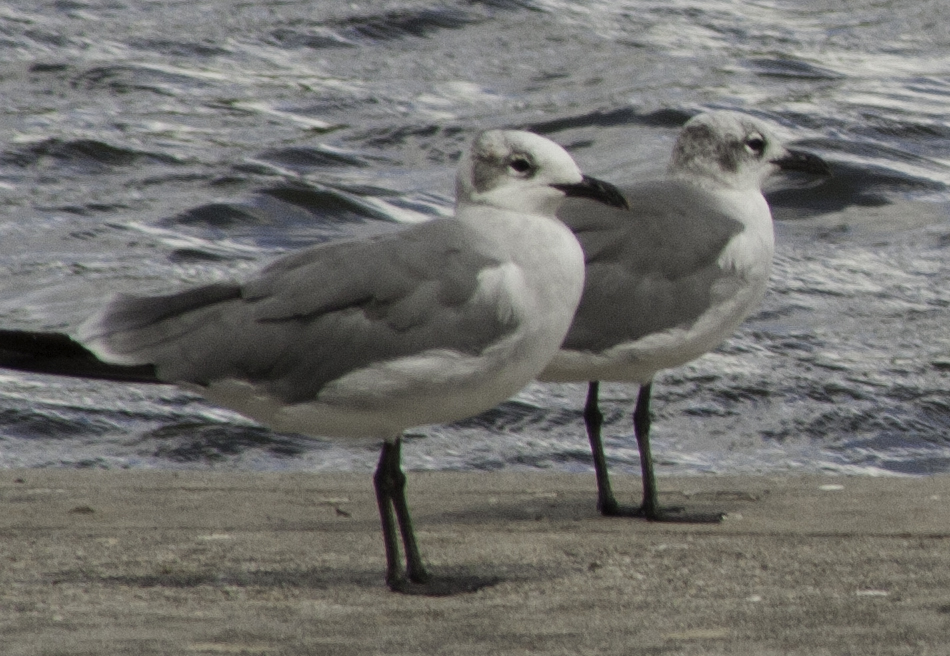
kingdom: Animalia
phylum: Chordata
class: Aves
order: Charadriiformes
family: Laridae
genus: Leucophaeus
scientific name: Leucophaeus atricilla
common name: Laughing gull
